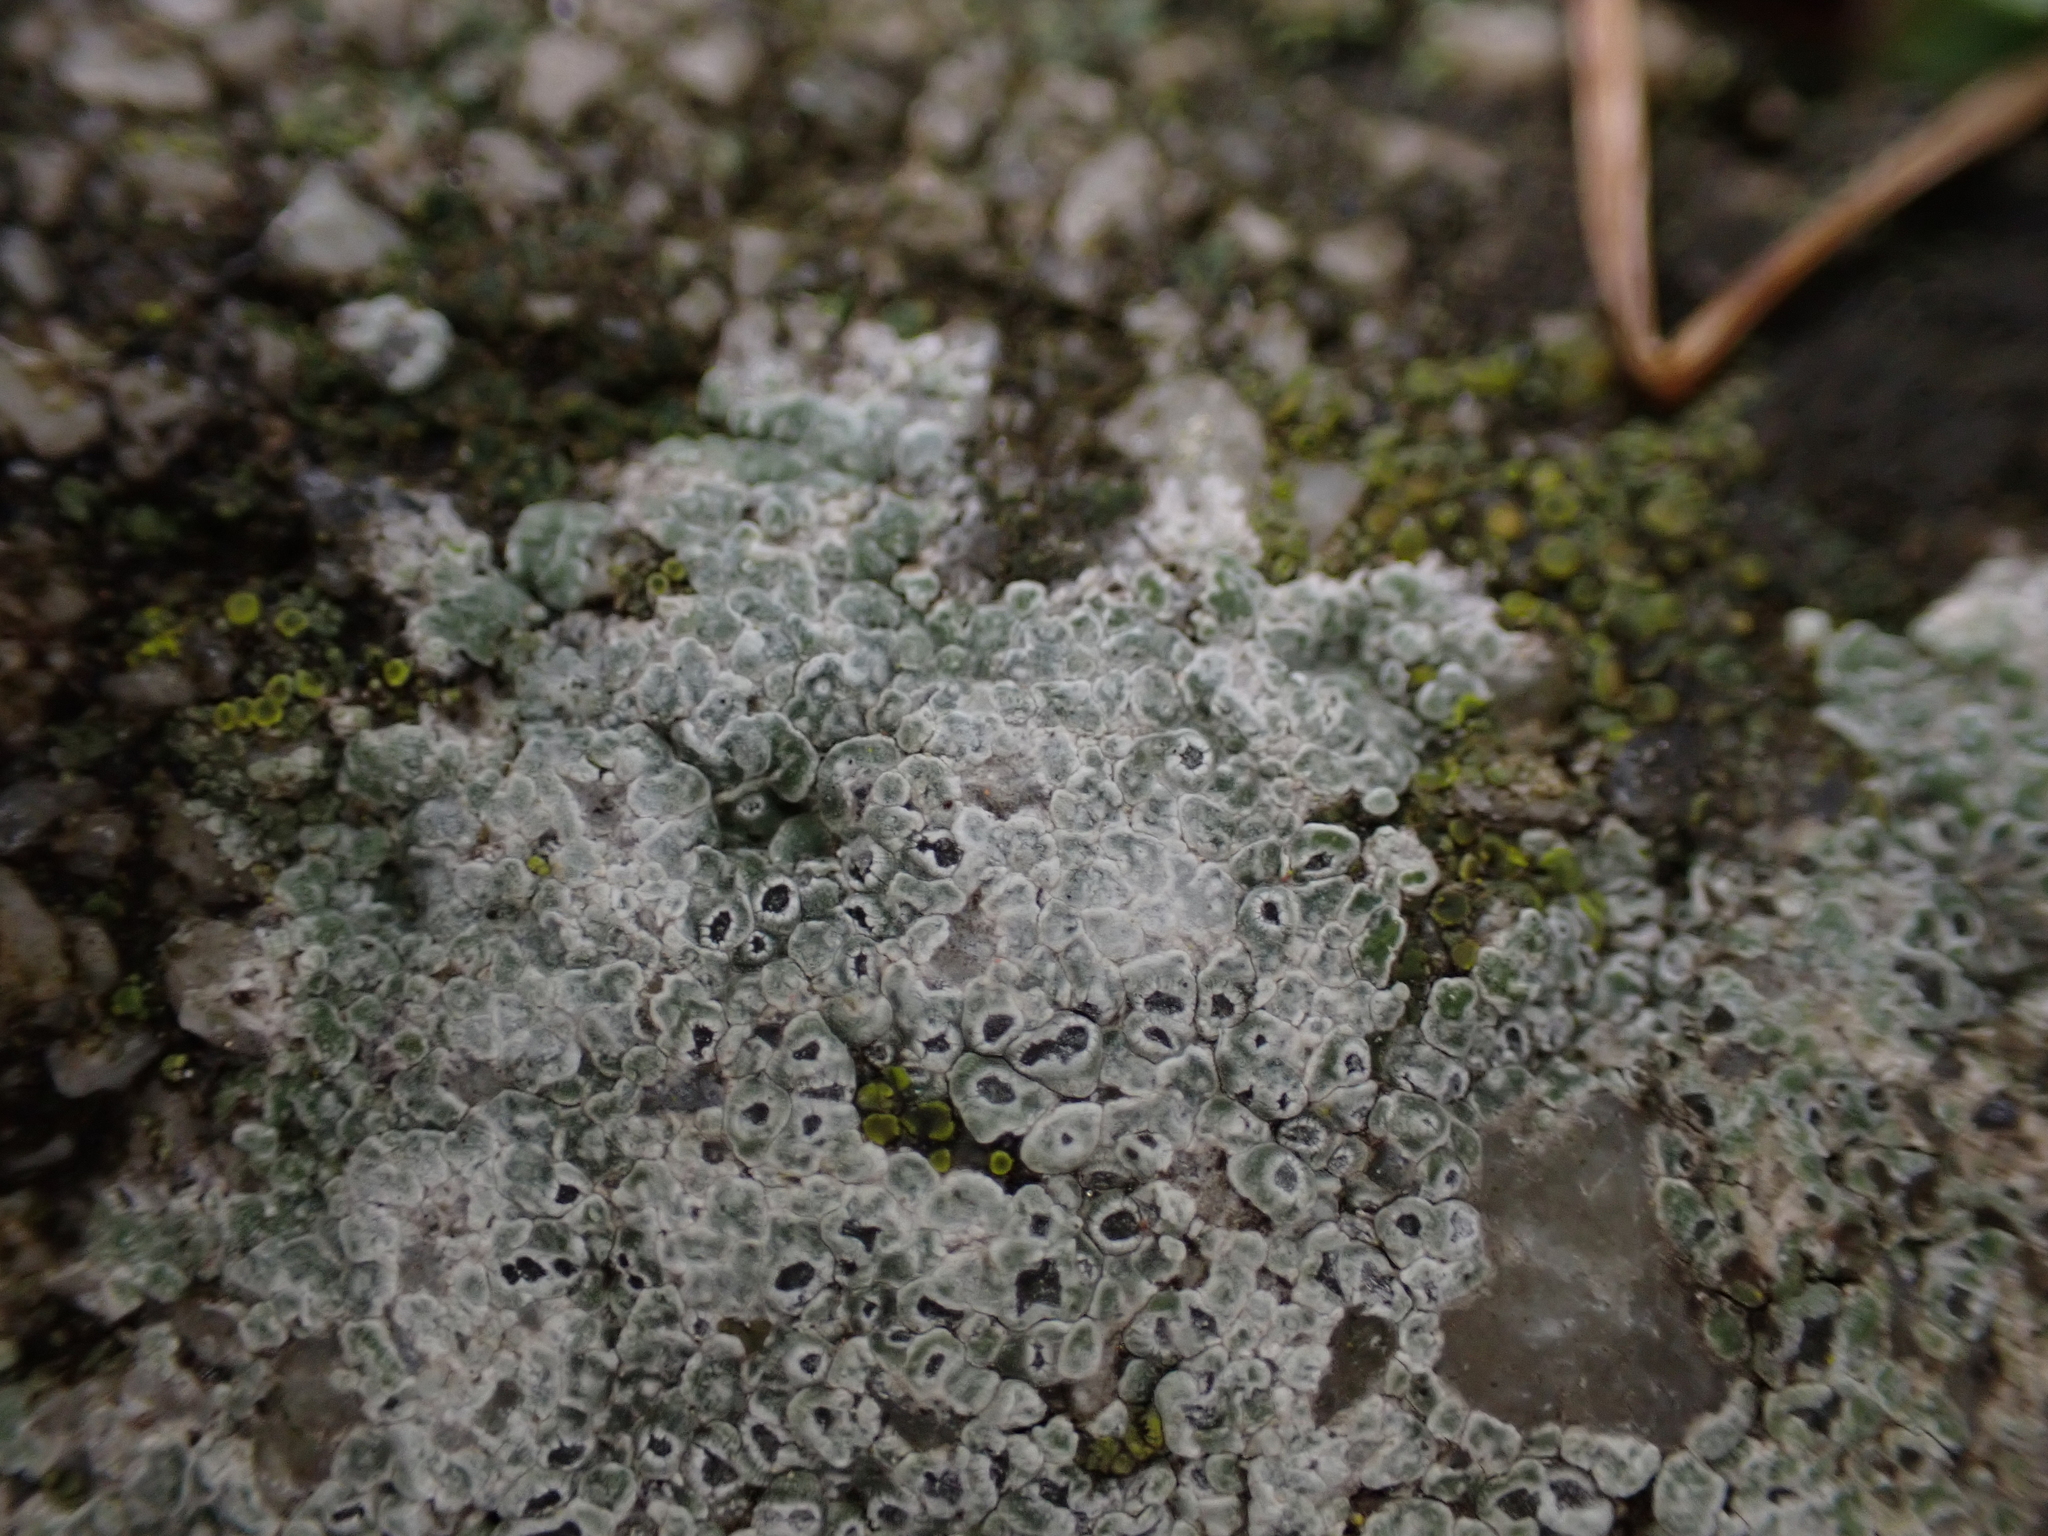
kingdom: Fungi
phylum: Ascomycota
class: Lecanoromycetes
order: Pertusariales
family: Megasporaceae
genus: Circinaria
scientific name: Circinaria contorta
